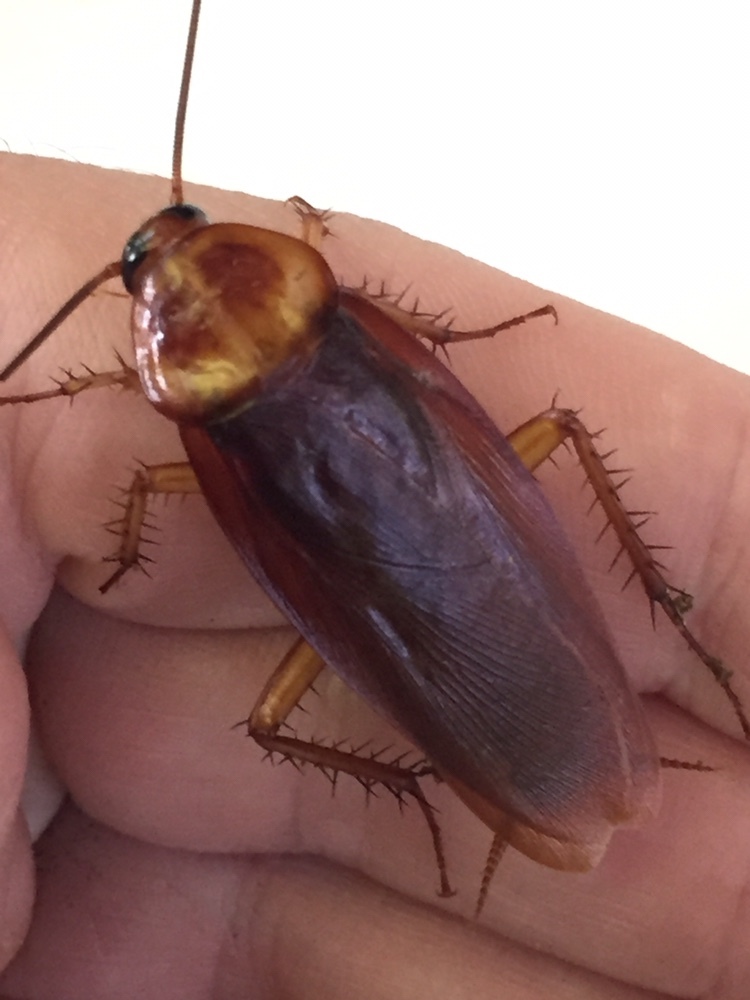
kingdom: Animalia
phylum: Arthropoda
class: Insecta
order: Blattodea
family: Blattidae
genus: Periplaneta
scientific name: Periplaneta americana
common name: American cockroach
